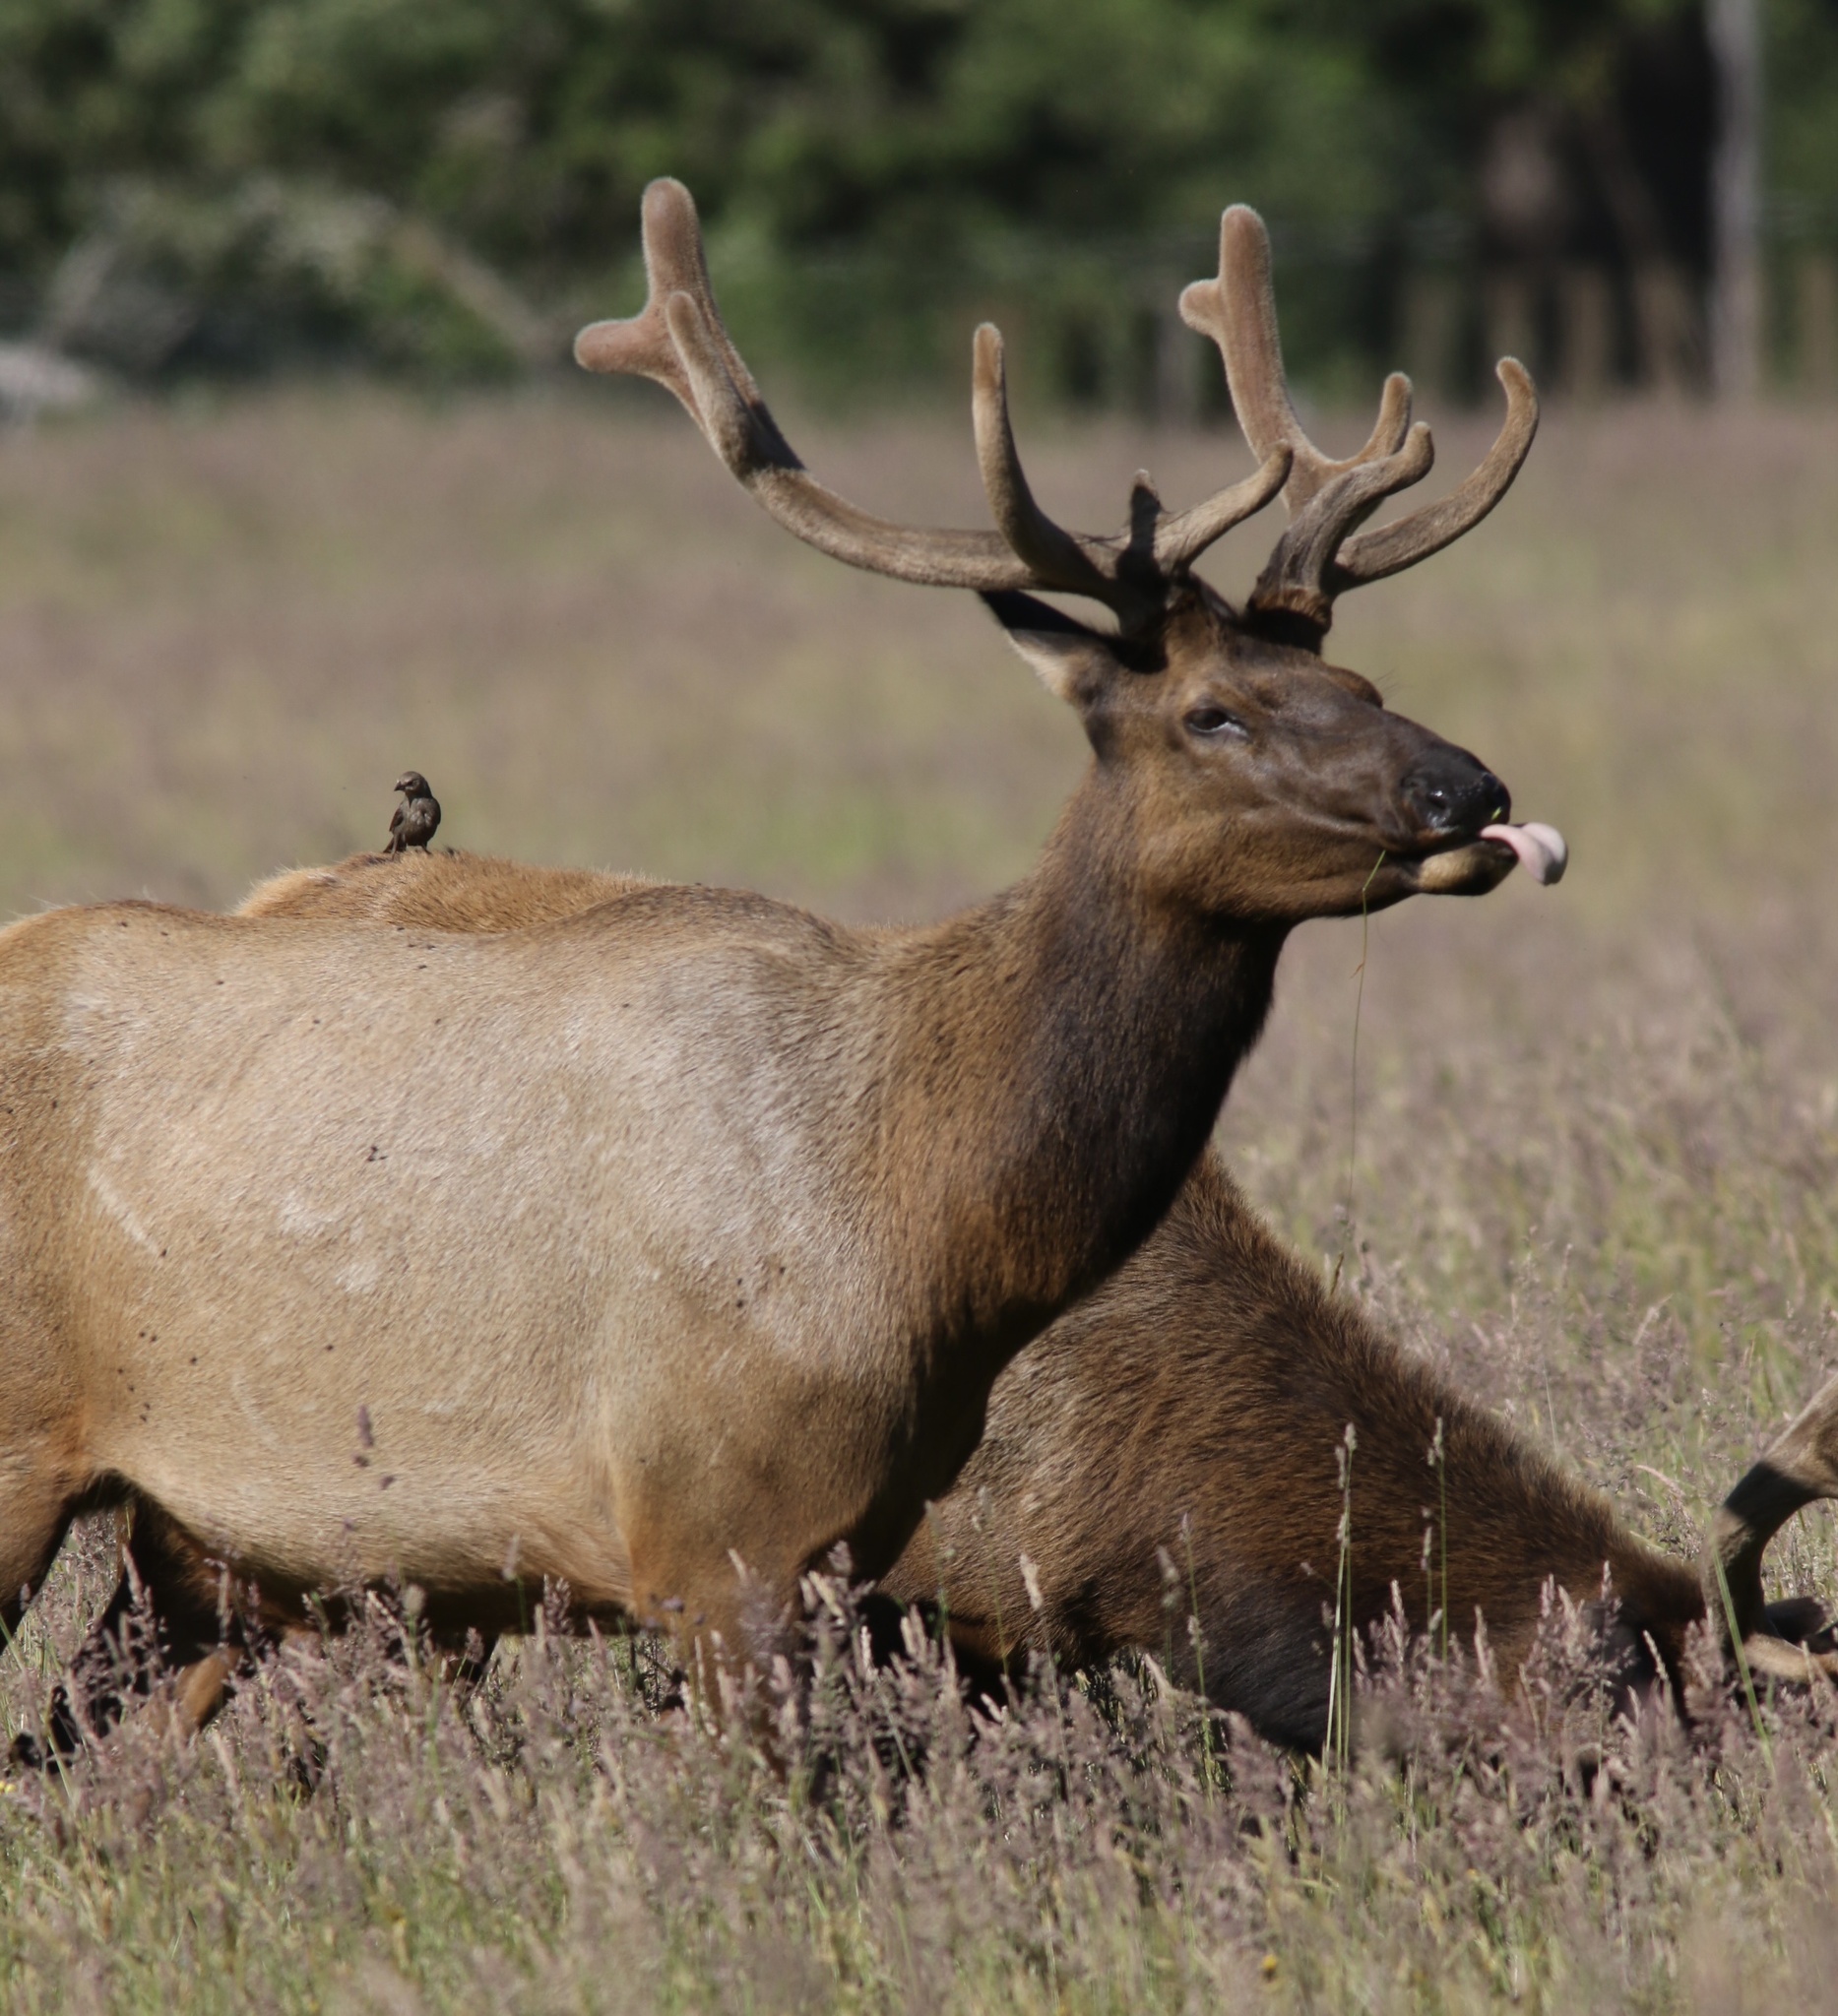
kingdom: Animalia
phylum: Chordata
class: Mammalia
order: Artiodactyla
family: Cervidae
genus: Cervus
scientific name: Cervus elaphus
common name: Red deer
